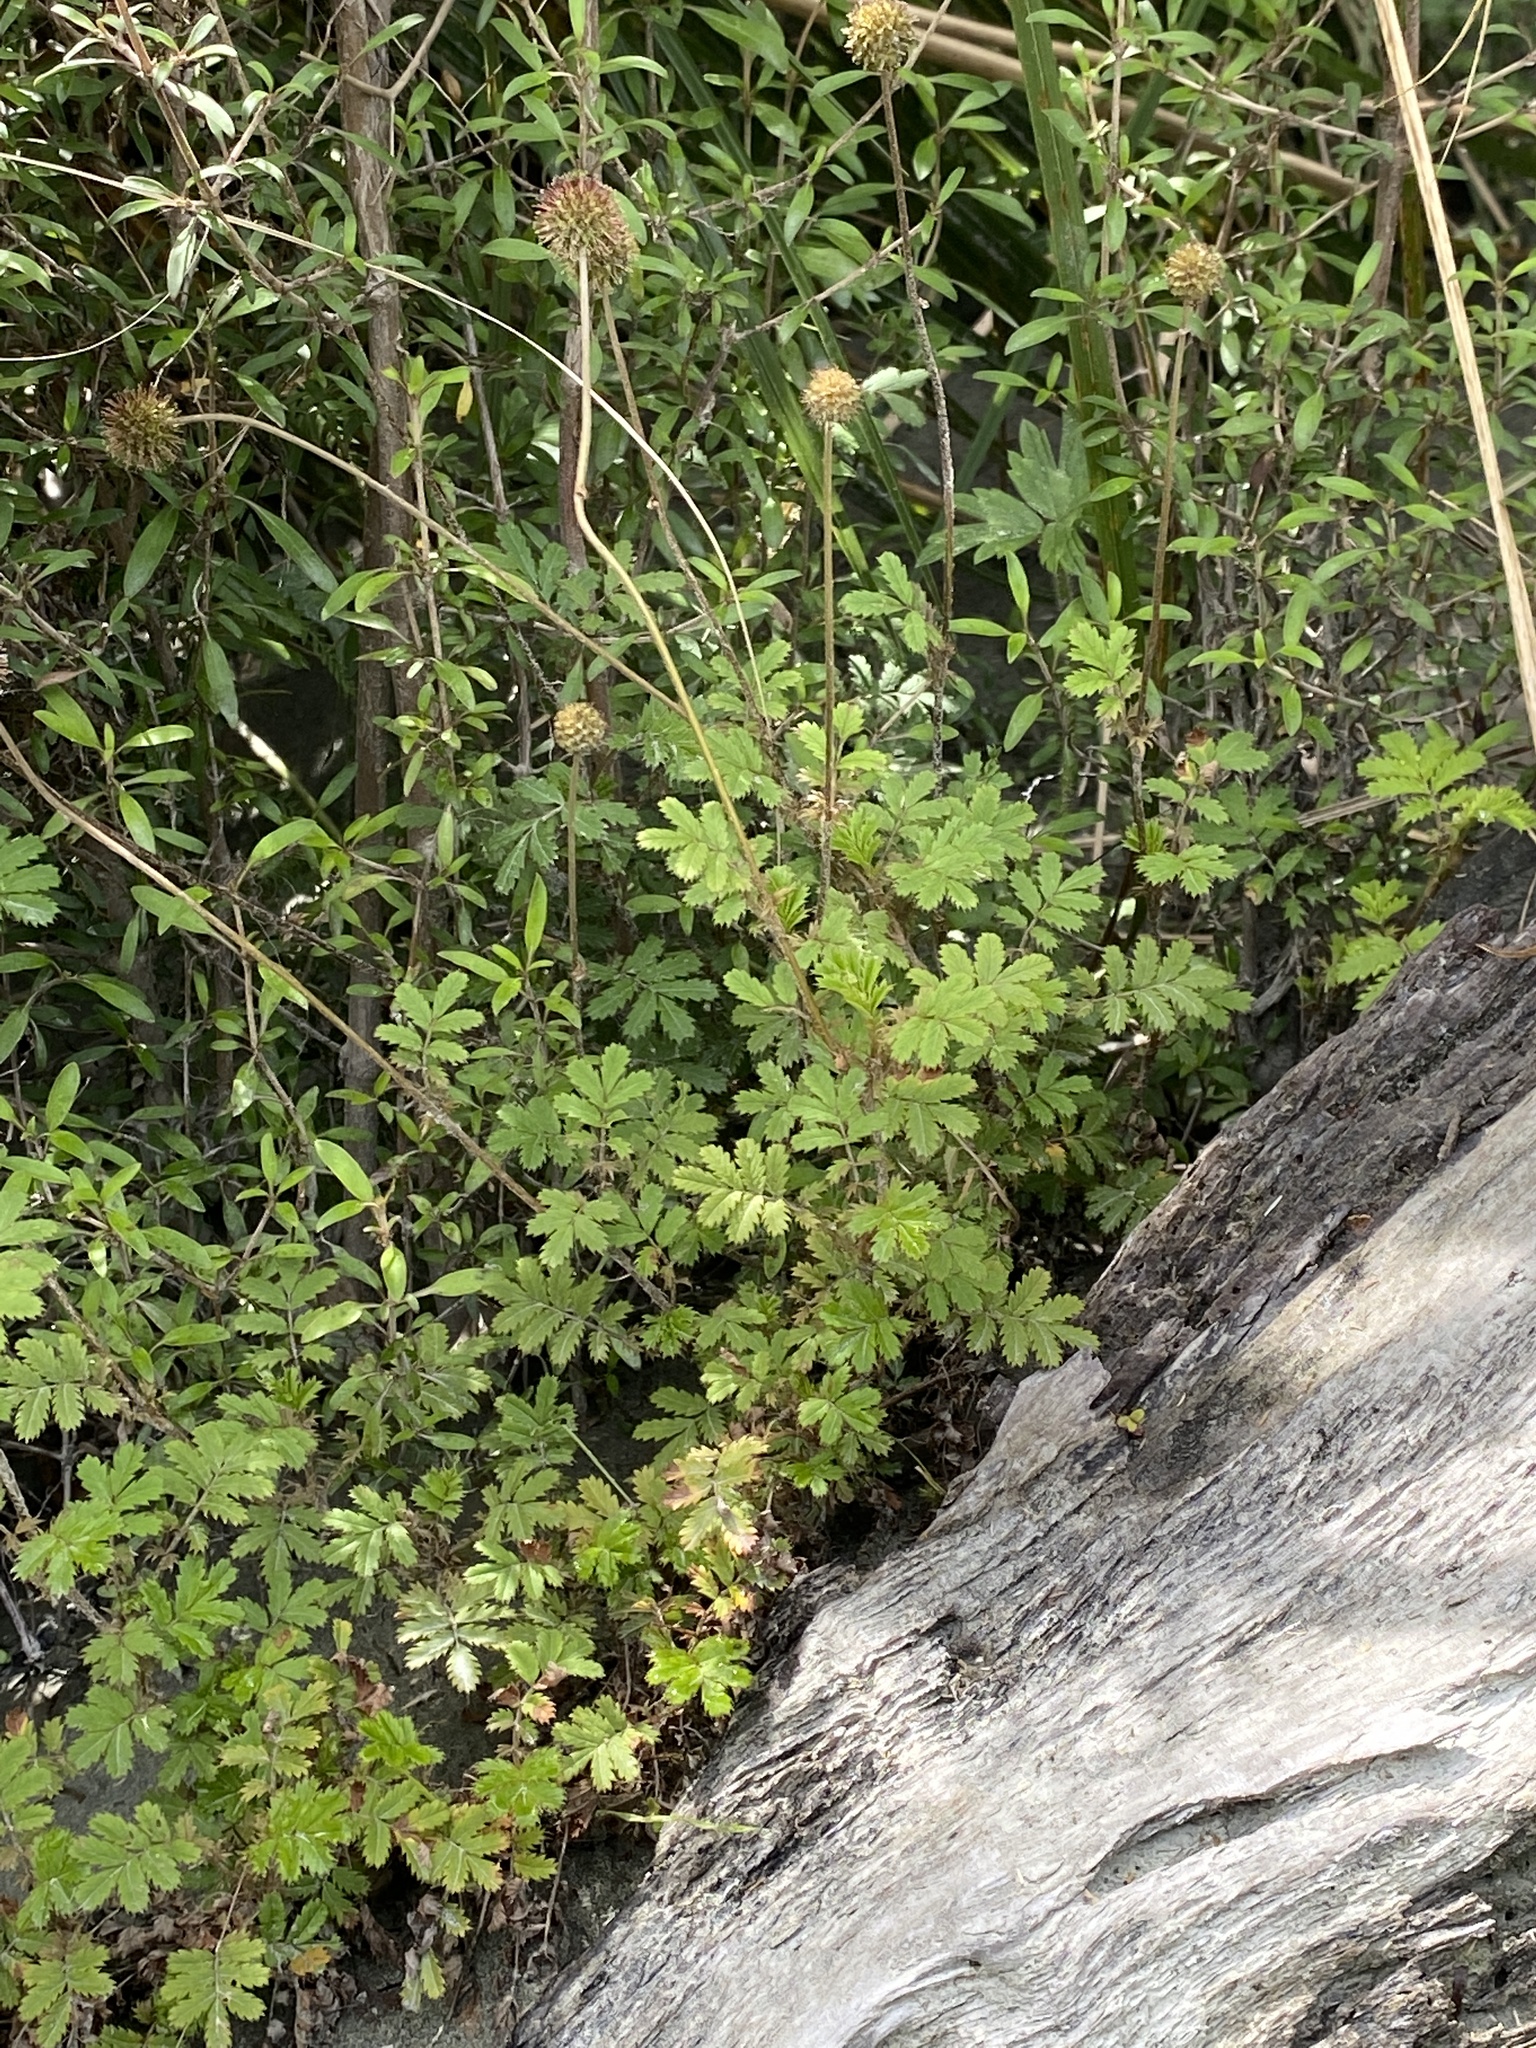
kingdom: Plantae
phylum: Tracheophyta
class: Magnoliopsida
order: Rosales
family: Rosaceae
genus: Acaena
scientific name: Acaena anserinifolia
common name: Bronze pirri-pirri-bur
